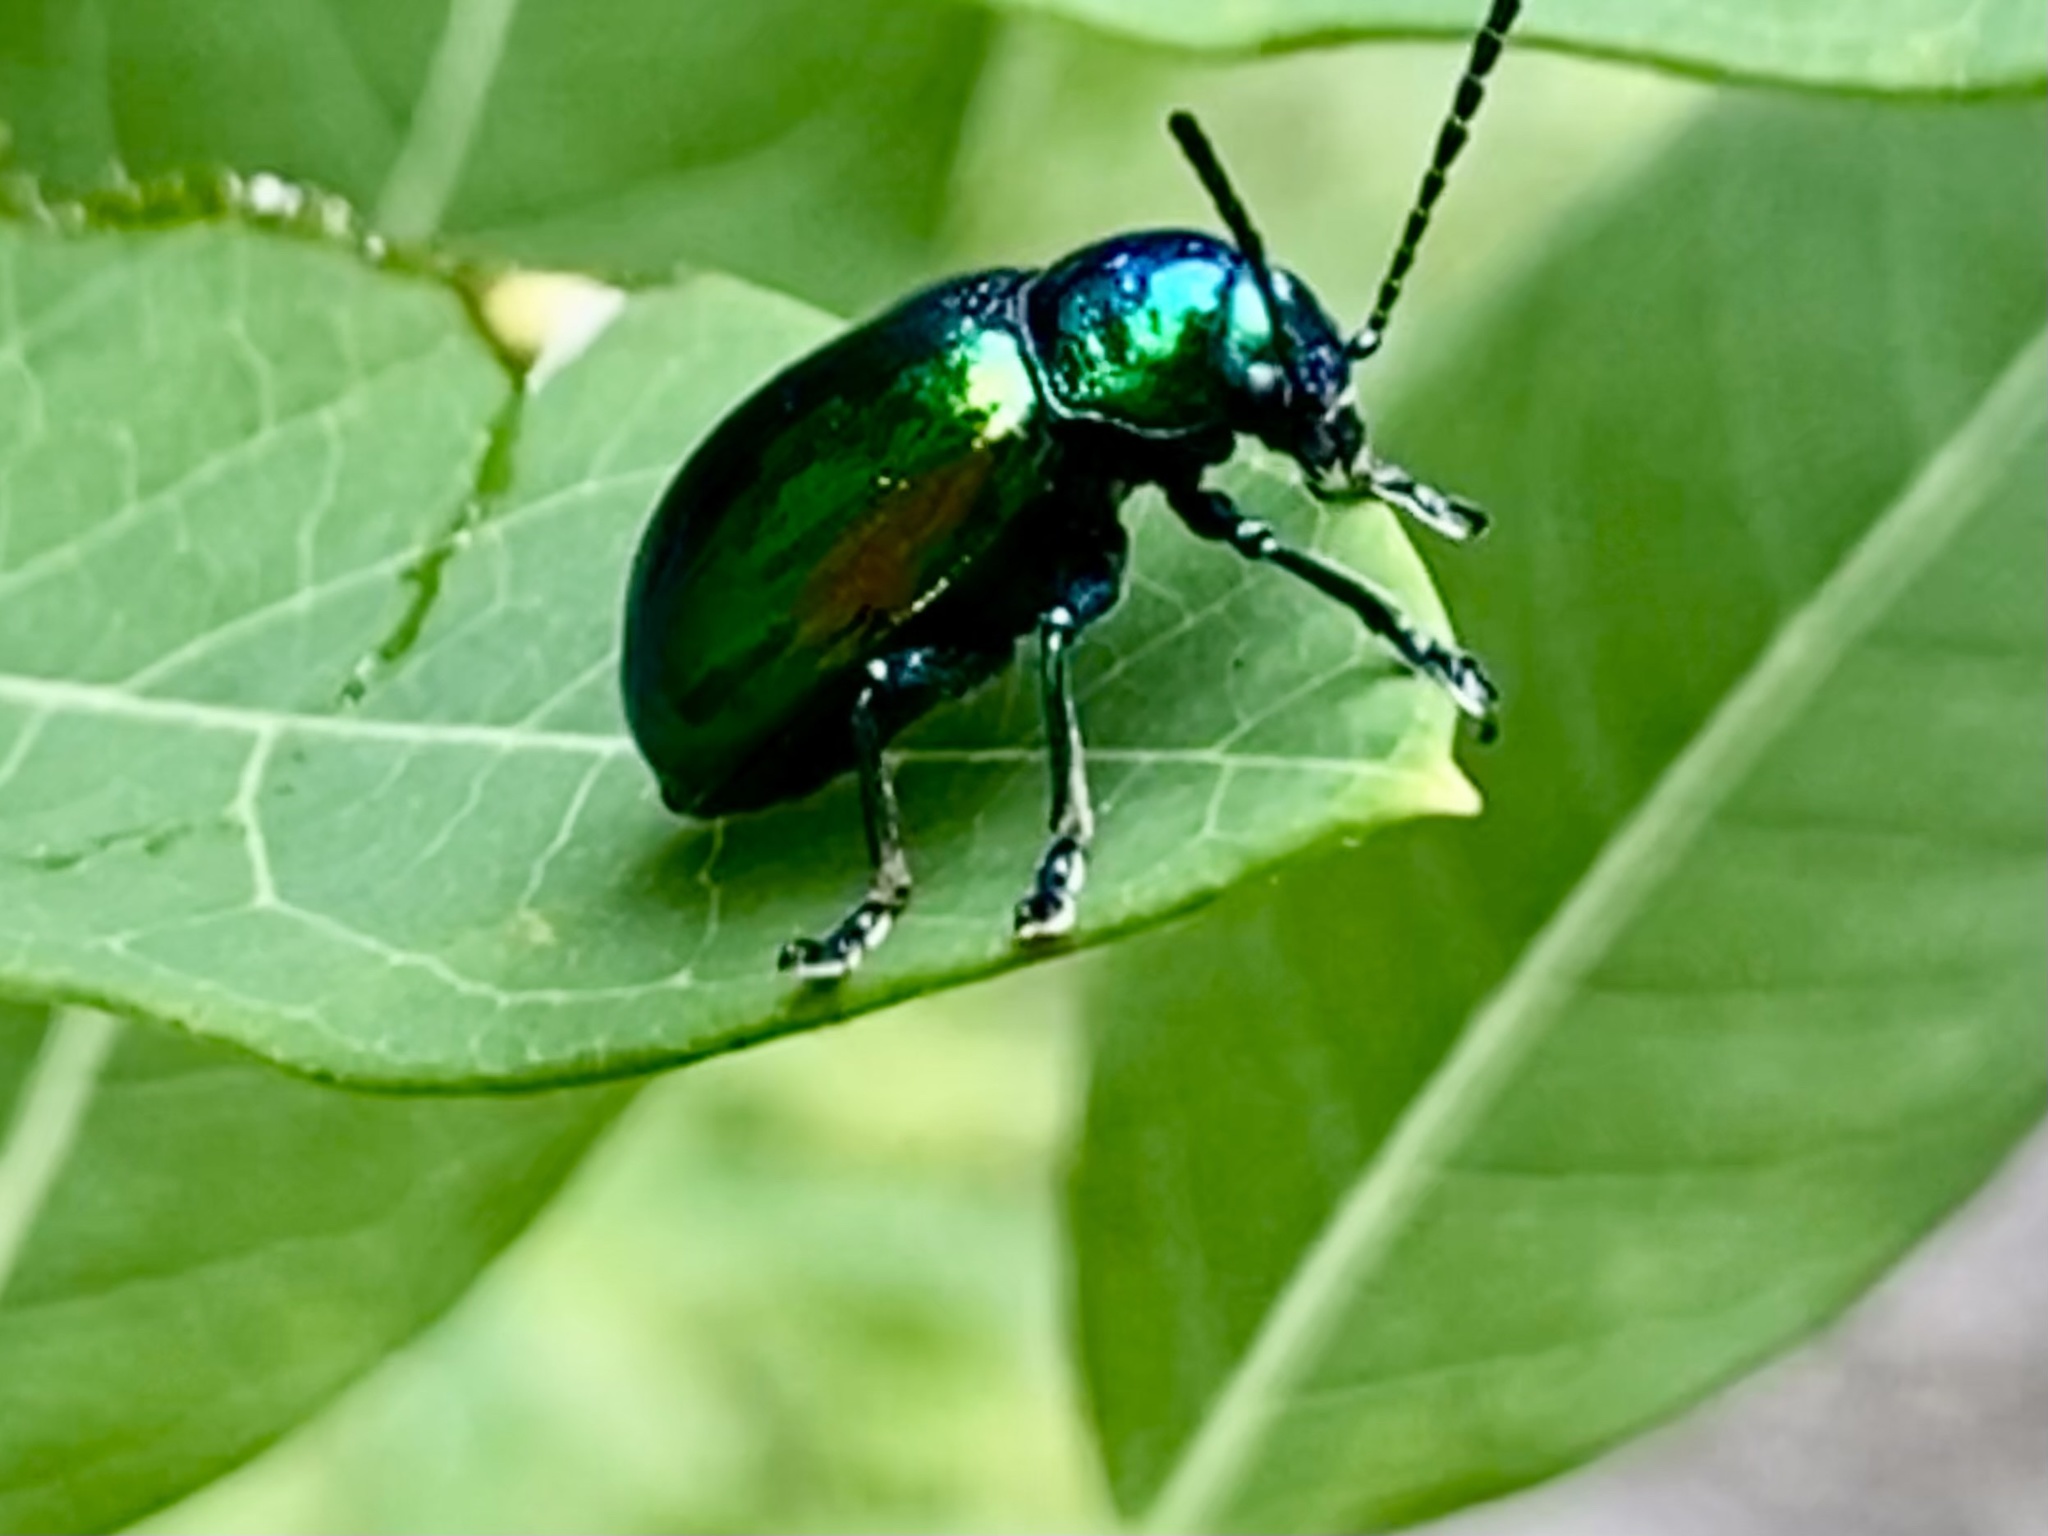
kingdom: Animalia
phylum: Arthropoda
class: Insecta
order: Coleoptera
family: Chrysomelidae
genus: Chrysochus
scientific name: Chrysochus auratus
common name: Dogbane leaf beetle
